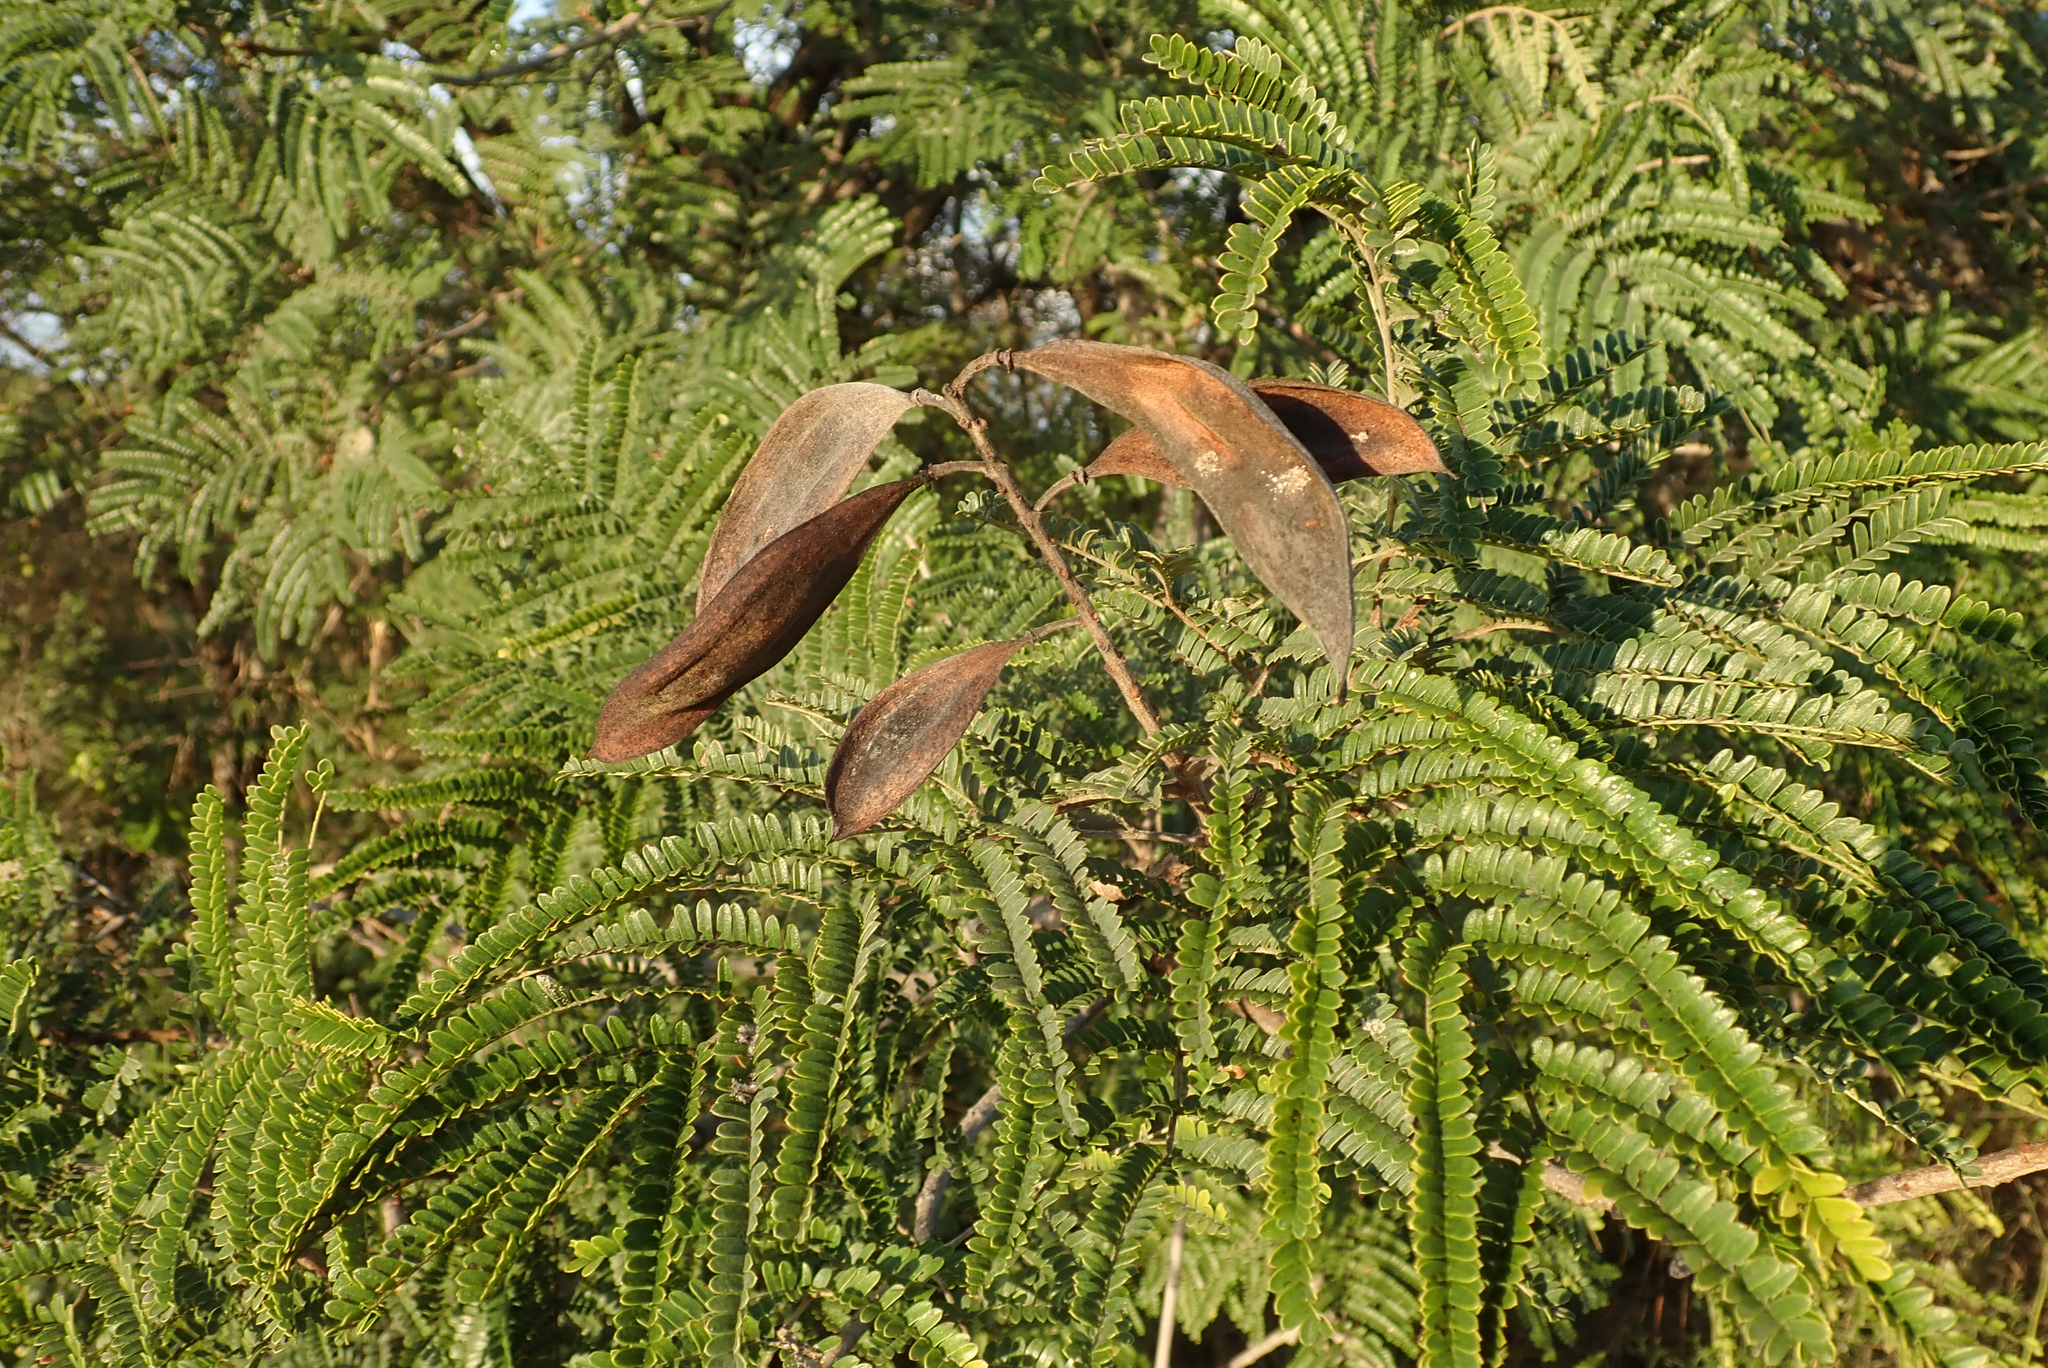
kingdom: Plantae
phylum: Tracheophyta
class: Magnoliopsida
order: Fabales
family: Fabaceae
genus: Peltophorum
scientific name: Peltophorum africanum
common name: African black wattle
